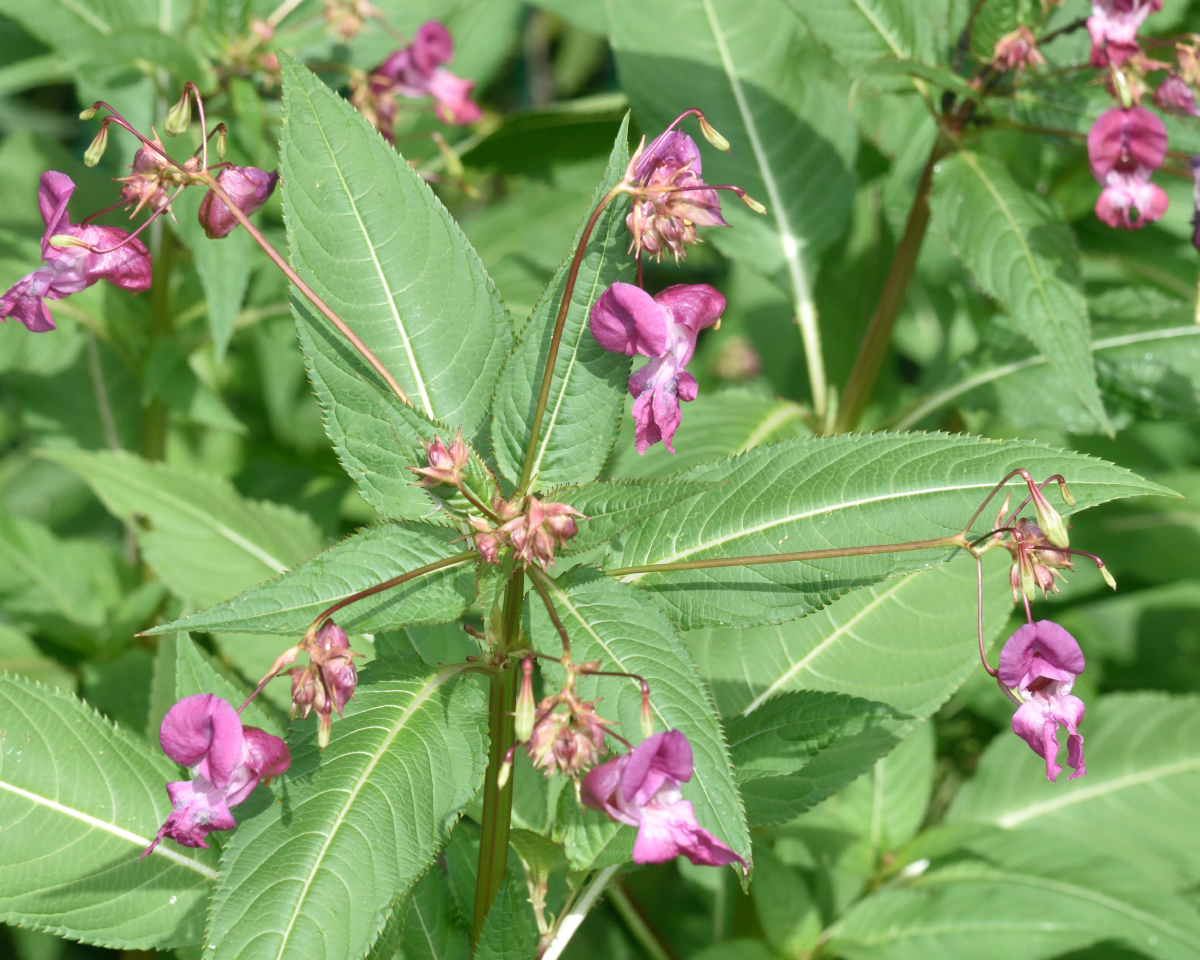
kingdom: Plantae
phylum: Tracheophyta
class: Magnoliopsida
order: Ericales
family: Balsaminaceae
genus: Impatiens
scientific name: Impatiens glandulifera
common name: Himalayan balsam
